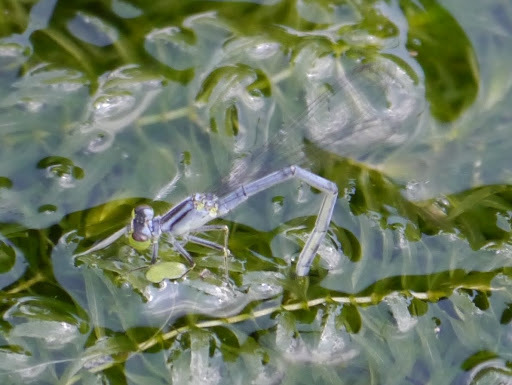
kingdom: Animalia
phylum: Arthropoda
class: Insecta
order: Odonata
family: Coenagrionidae
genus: Ischnura
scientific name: Ischnura verticalis
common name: Eastern forktail
